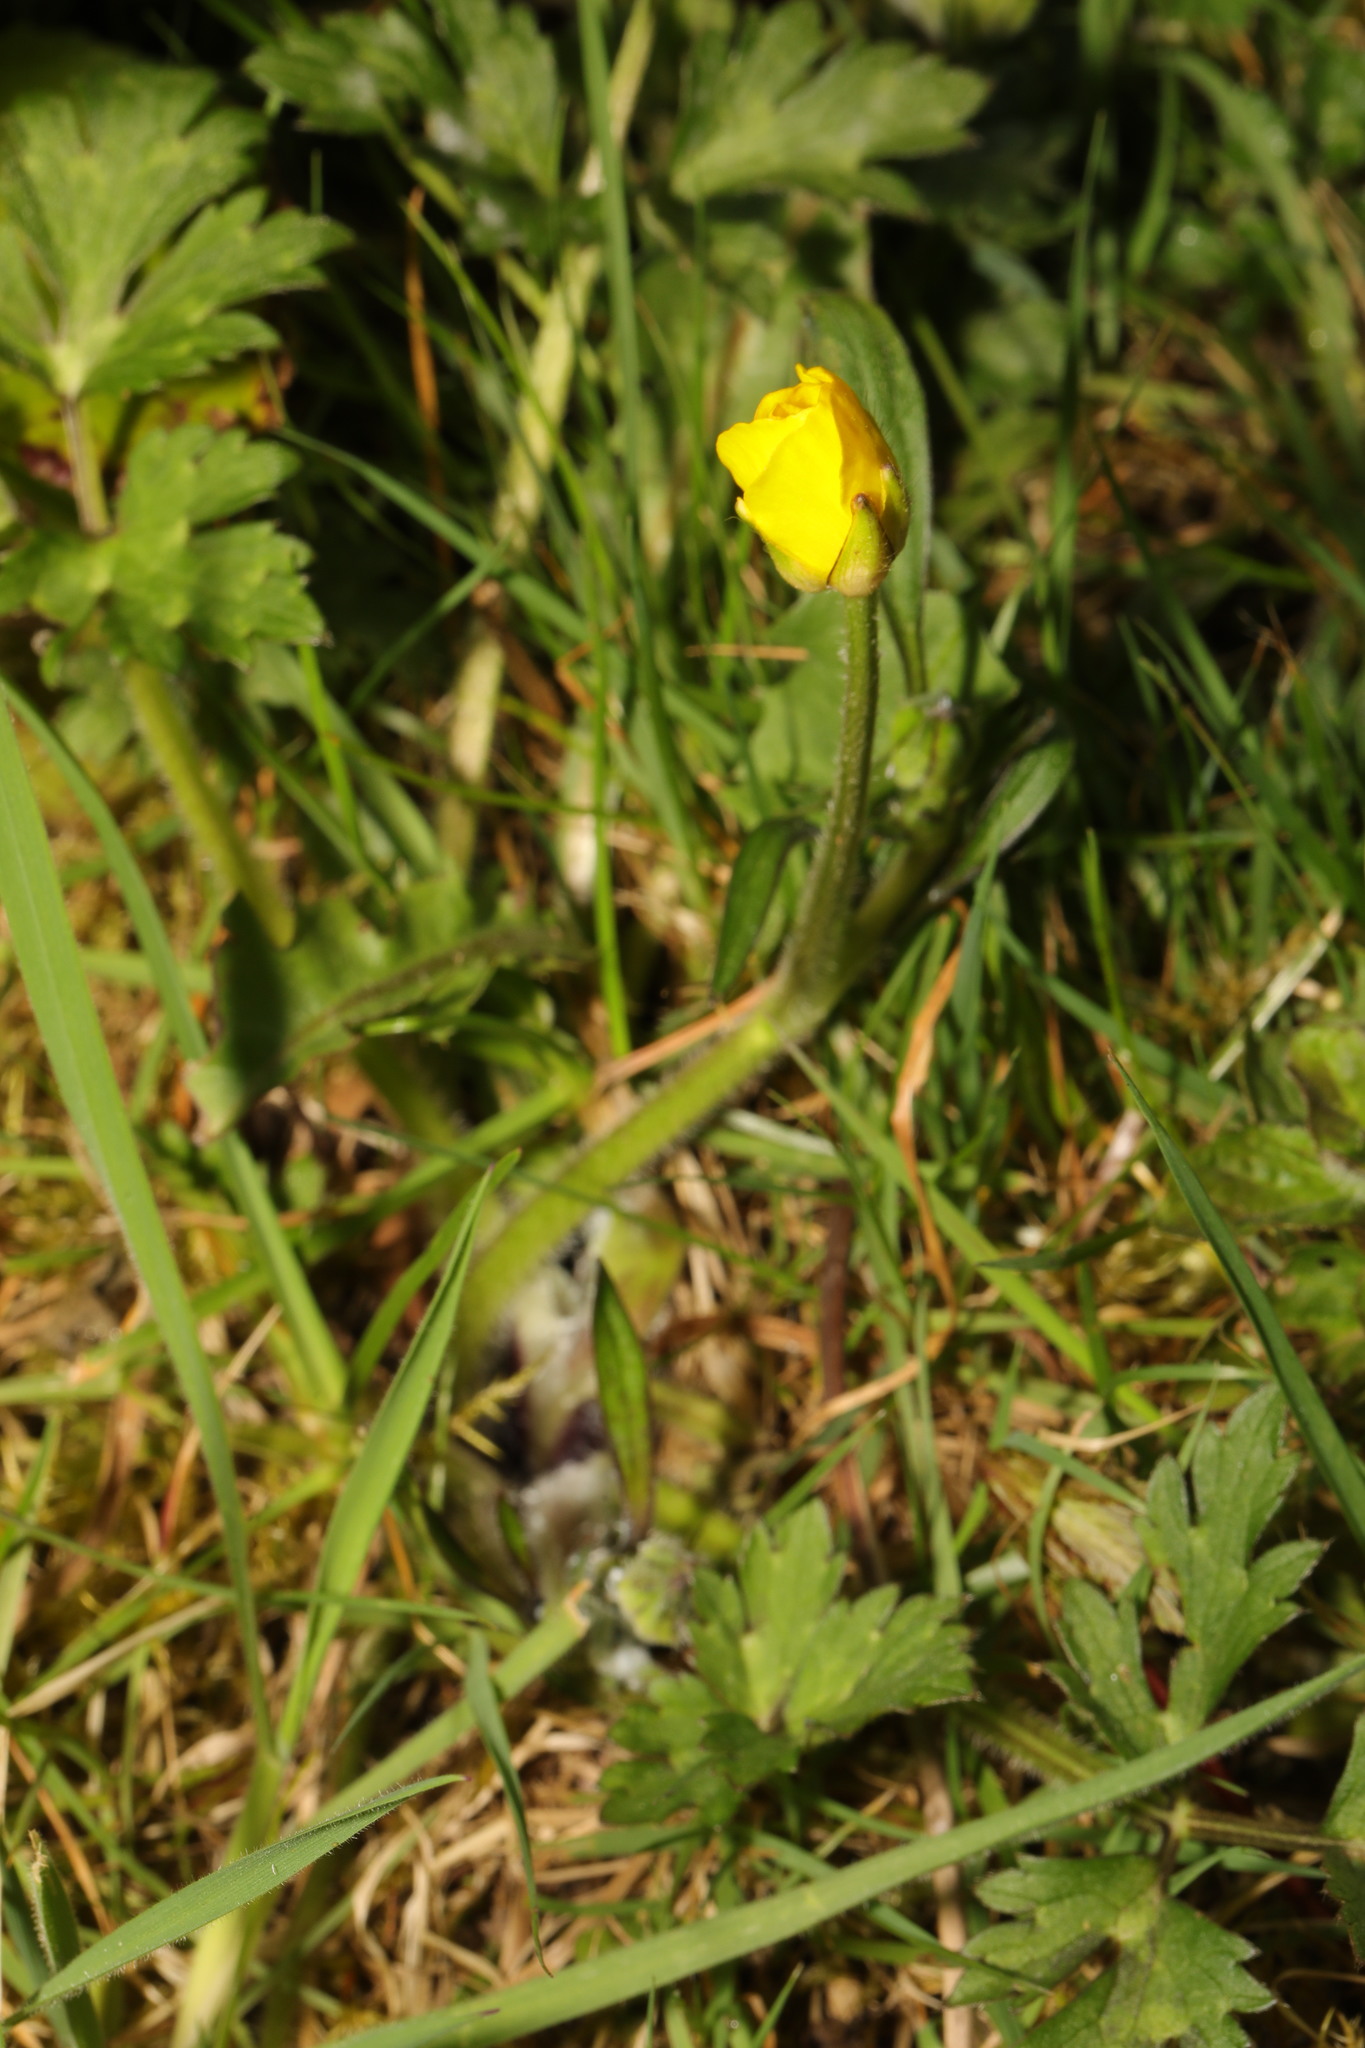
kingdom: Plantae
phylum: Tracheophyta
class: Magnoliopsida
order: Ranunculales
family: Ranunculaceae
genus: Ranunculus
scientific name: Ranunculus repens
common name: Creeping buttercup
